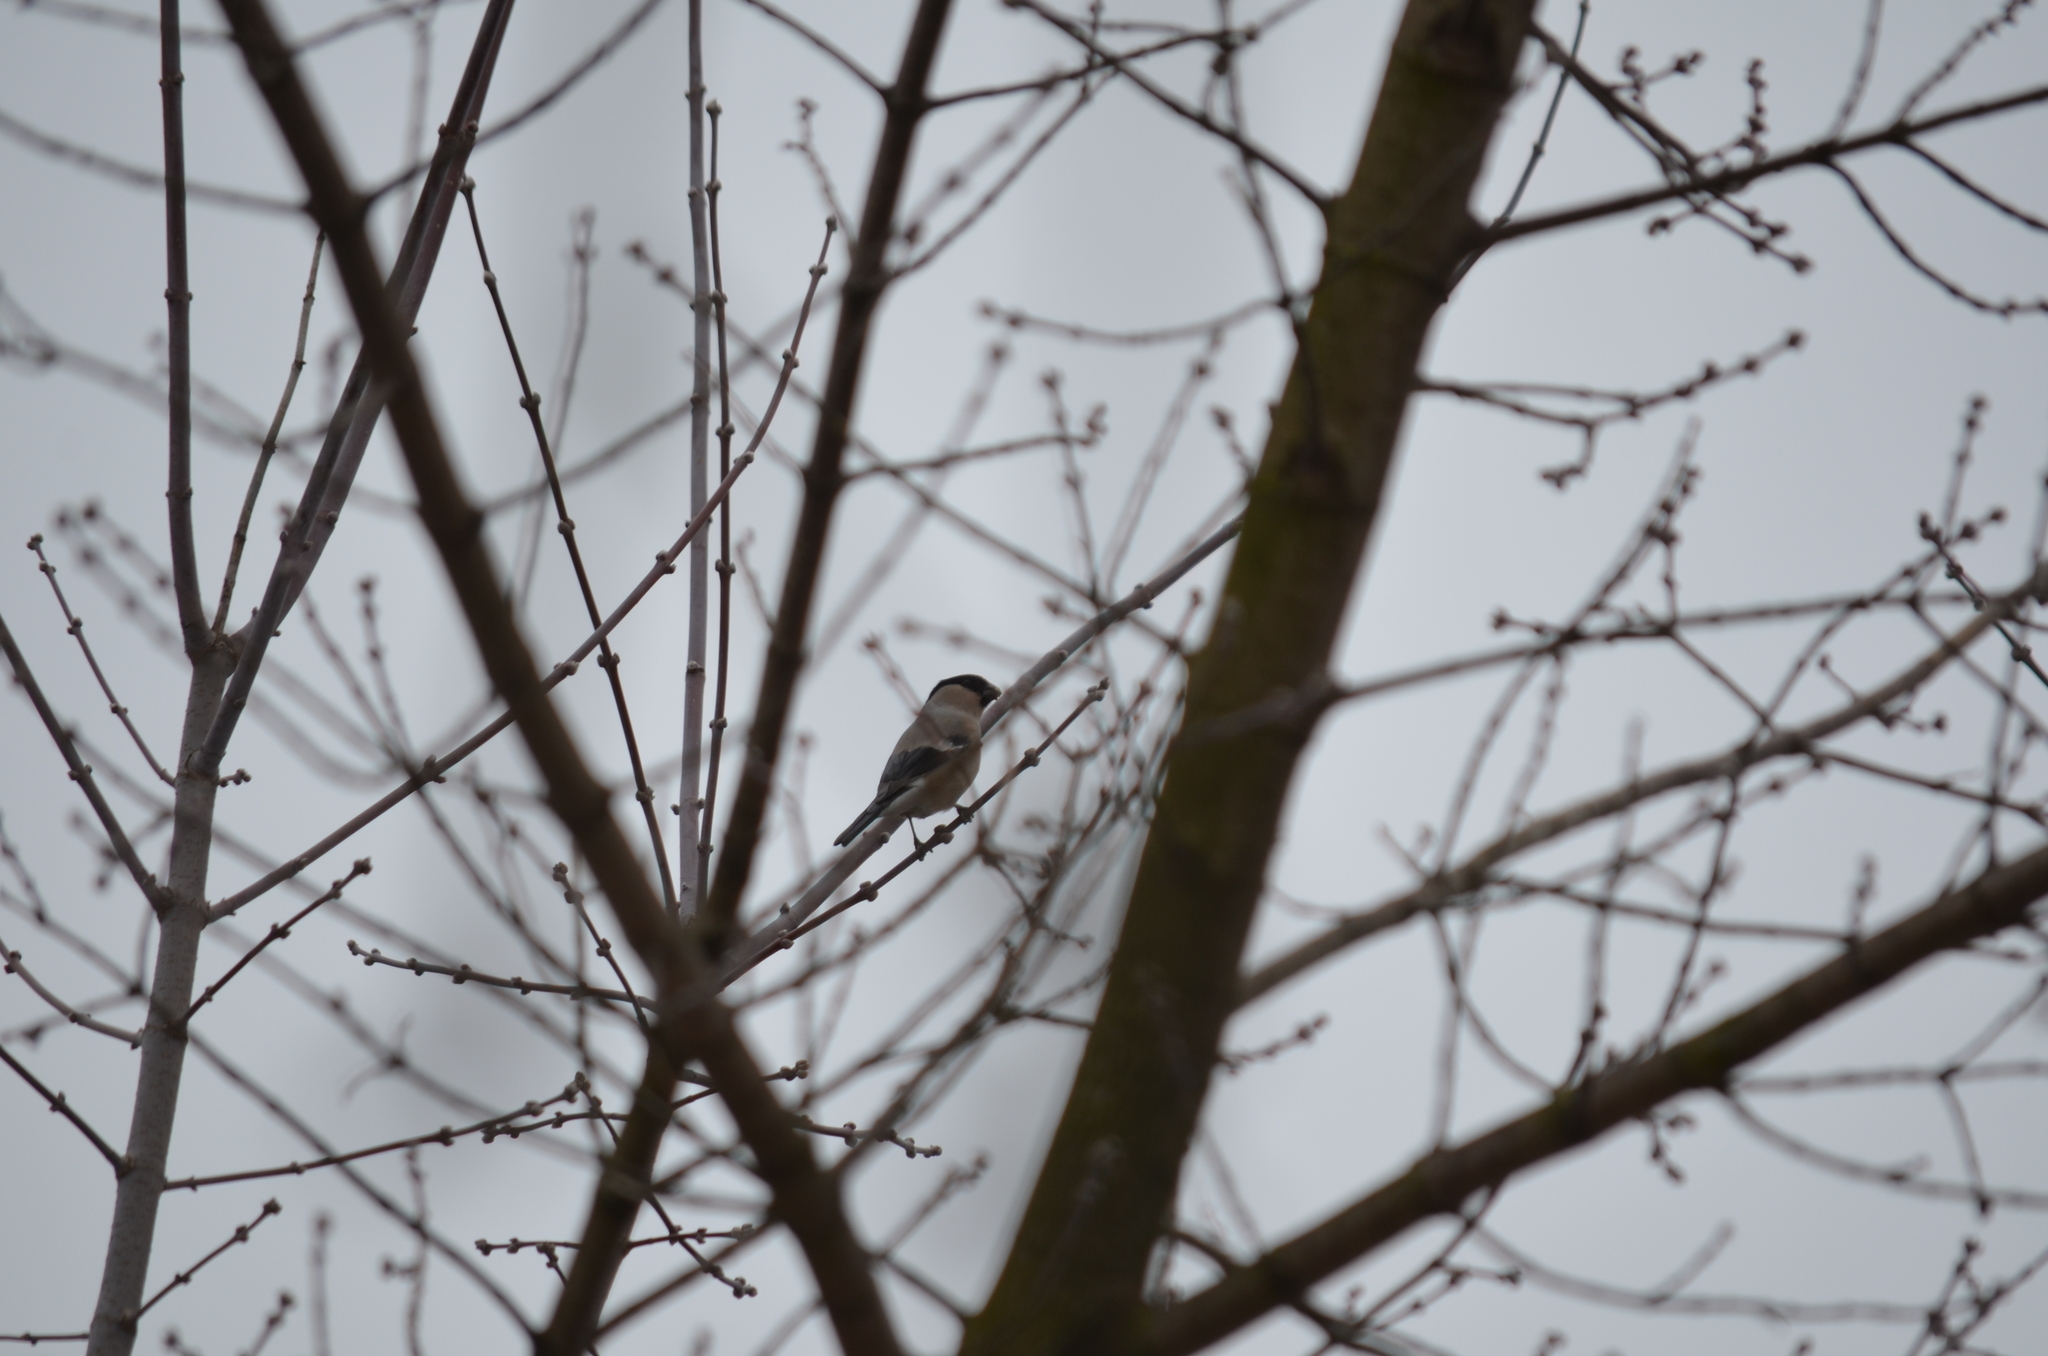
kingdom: Animalia
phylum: Chordata
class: Aves
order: Passeriformes
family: Fringillidae
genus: Pyrrhula
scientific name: Pyrrhula pyrrhula
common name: Eurasian bullfinch
